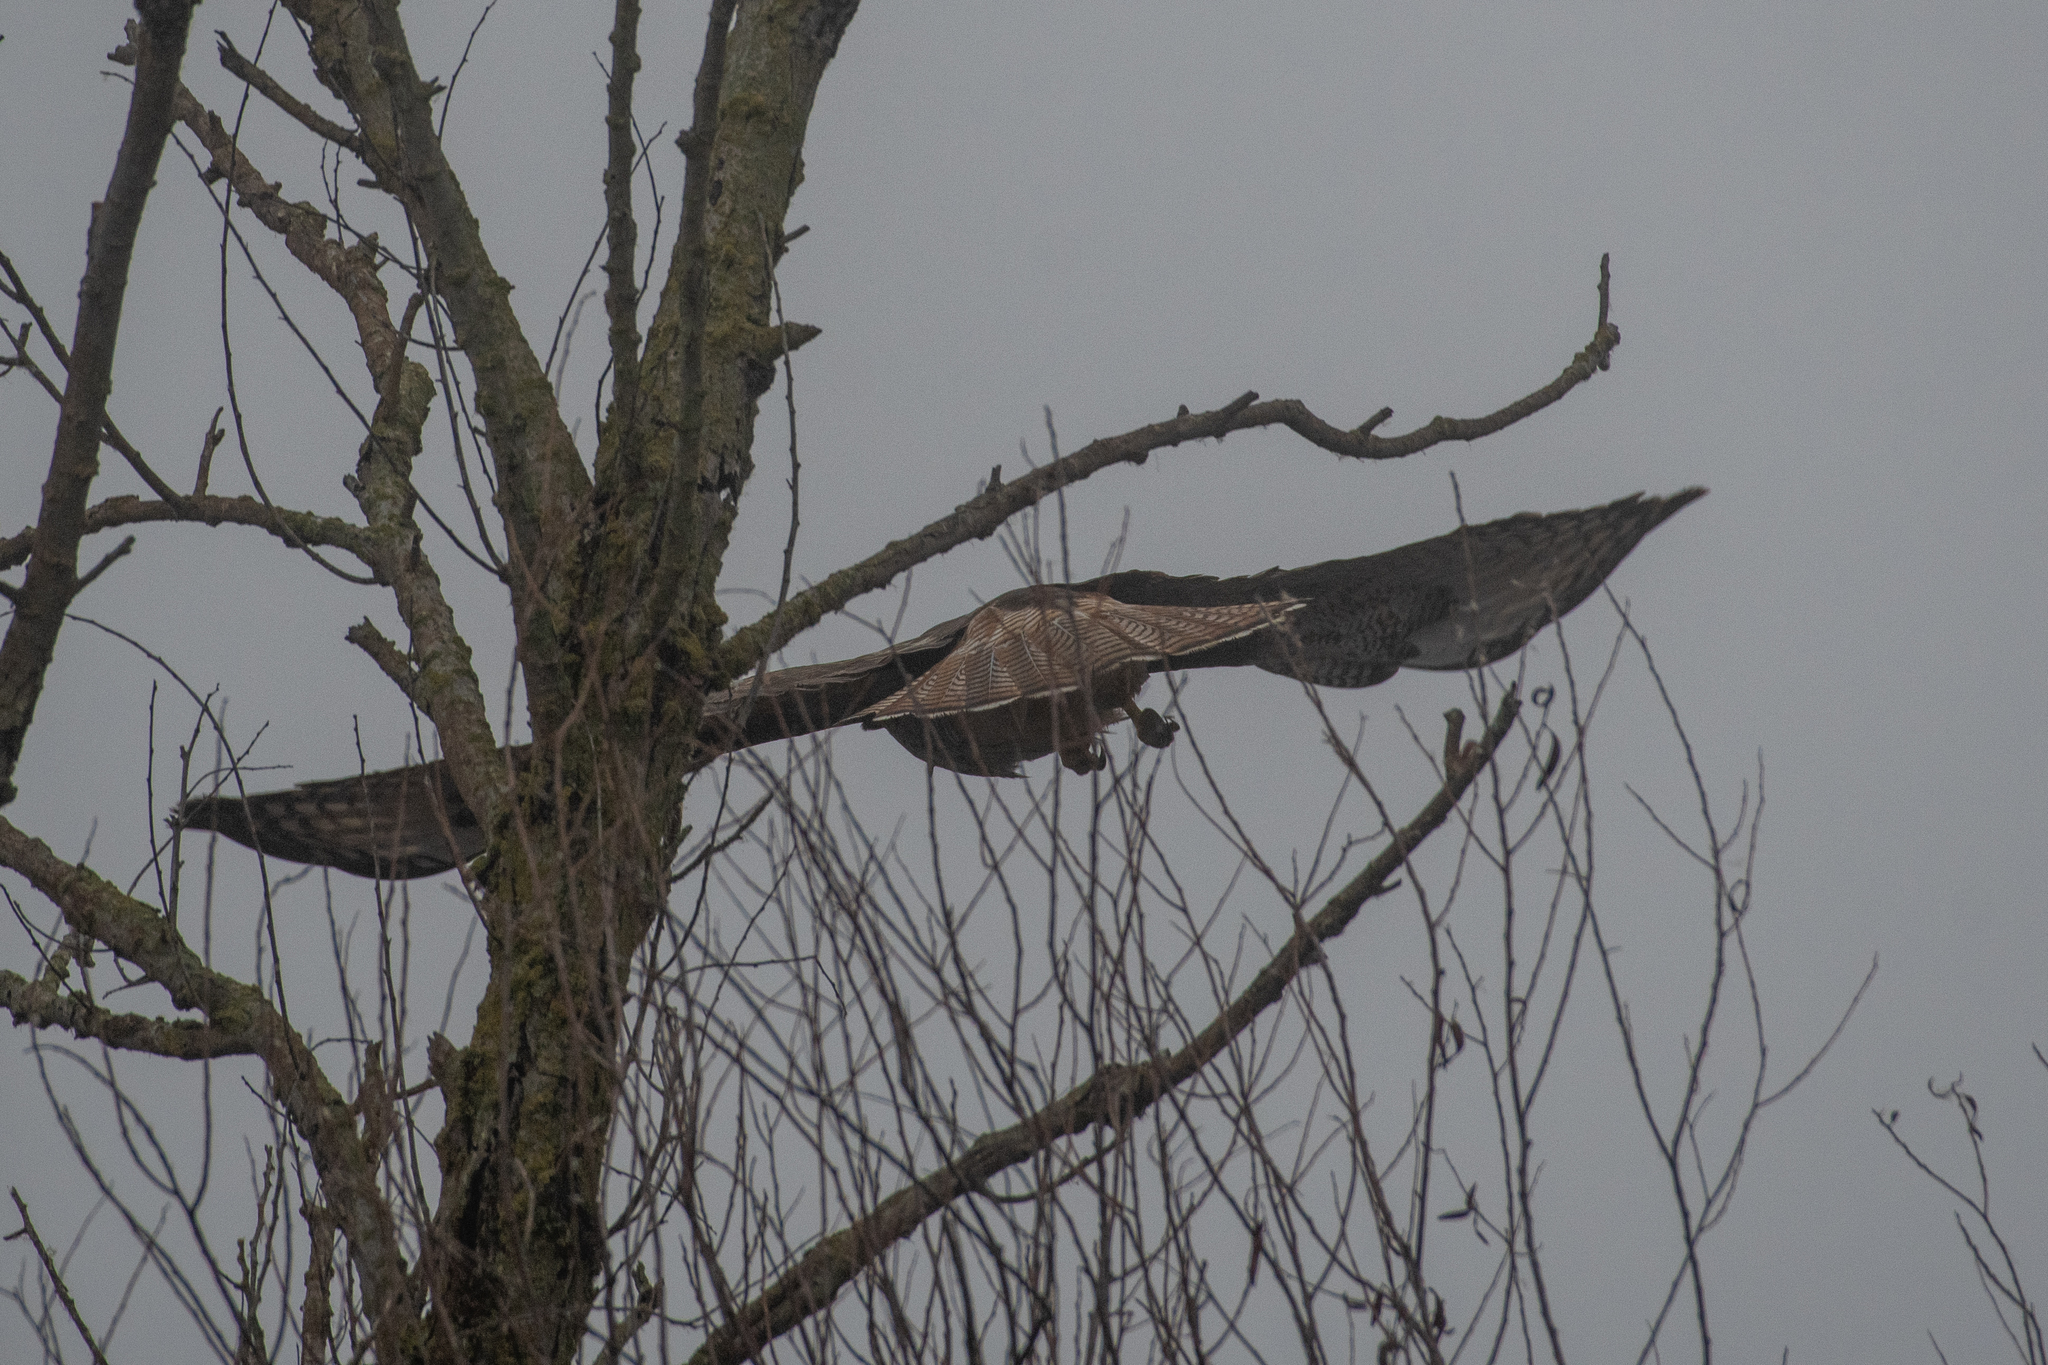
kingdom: Animalia
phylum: Chordata
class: Aves
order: Accipitriformes
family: Accipitridae
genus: Buteo
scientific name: Buteo jamaicensis
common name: Red-tailed hawk
